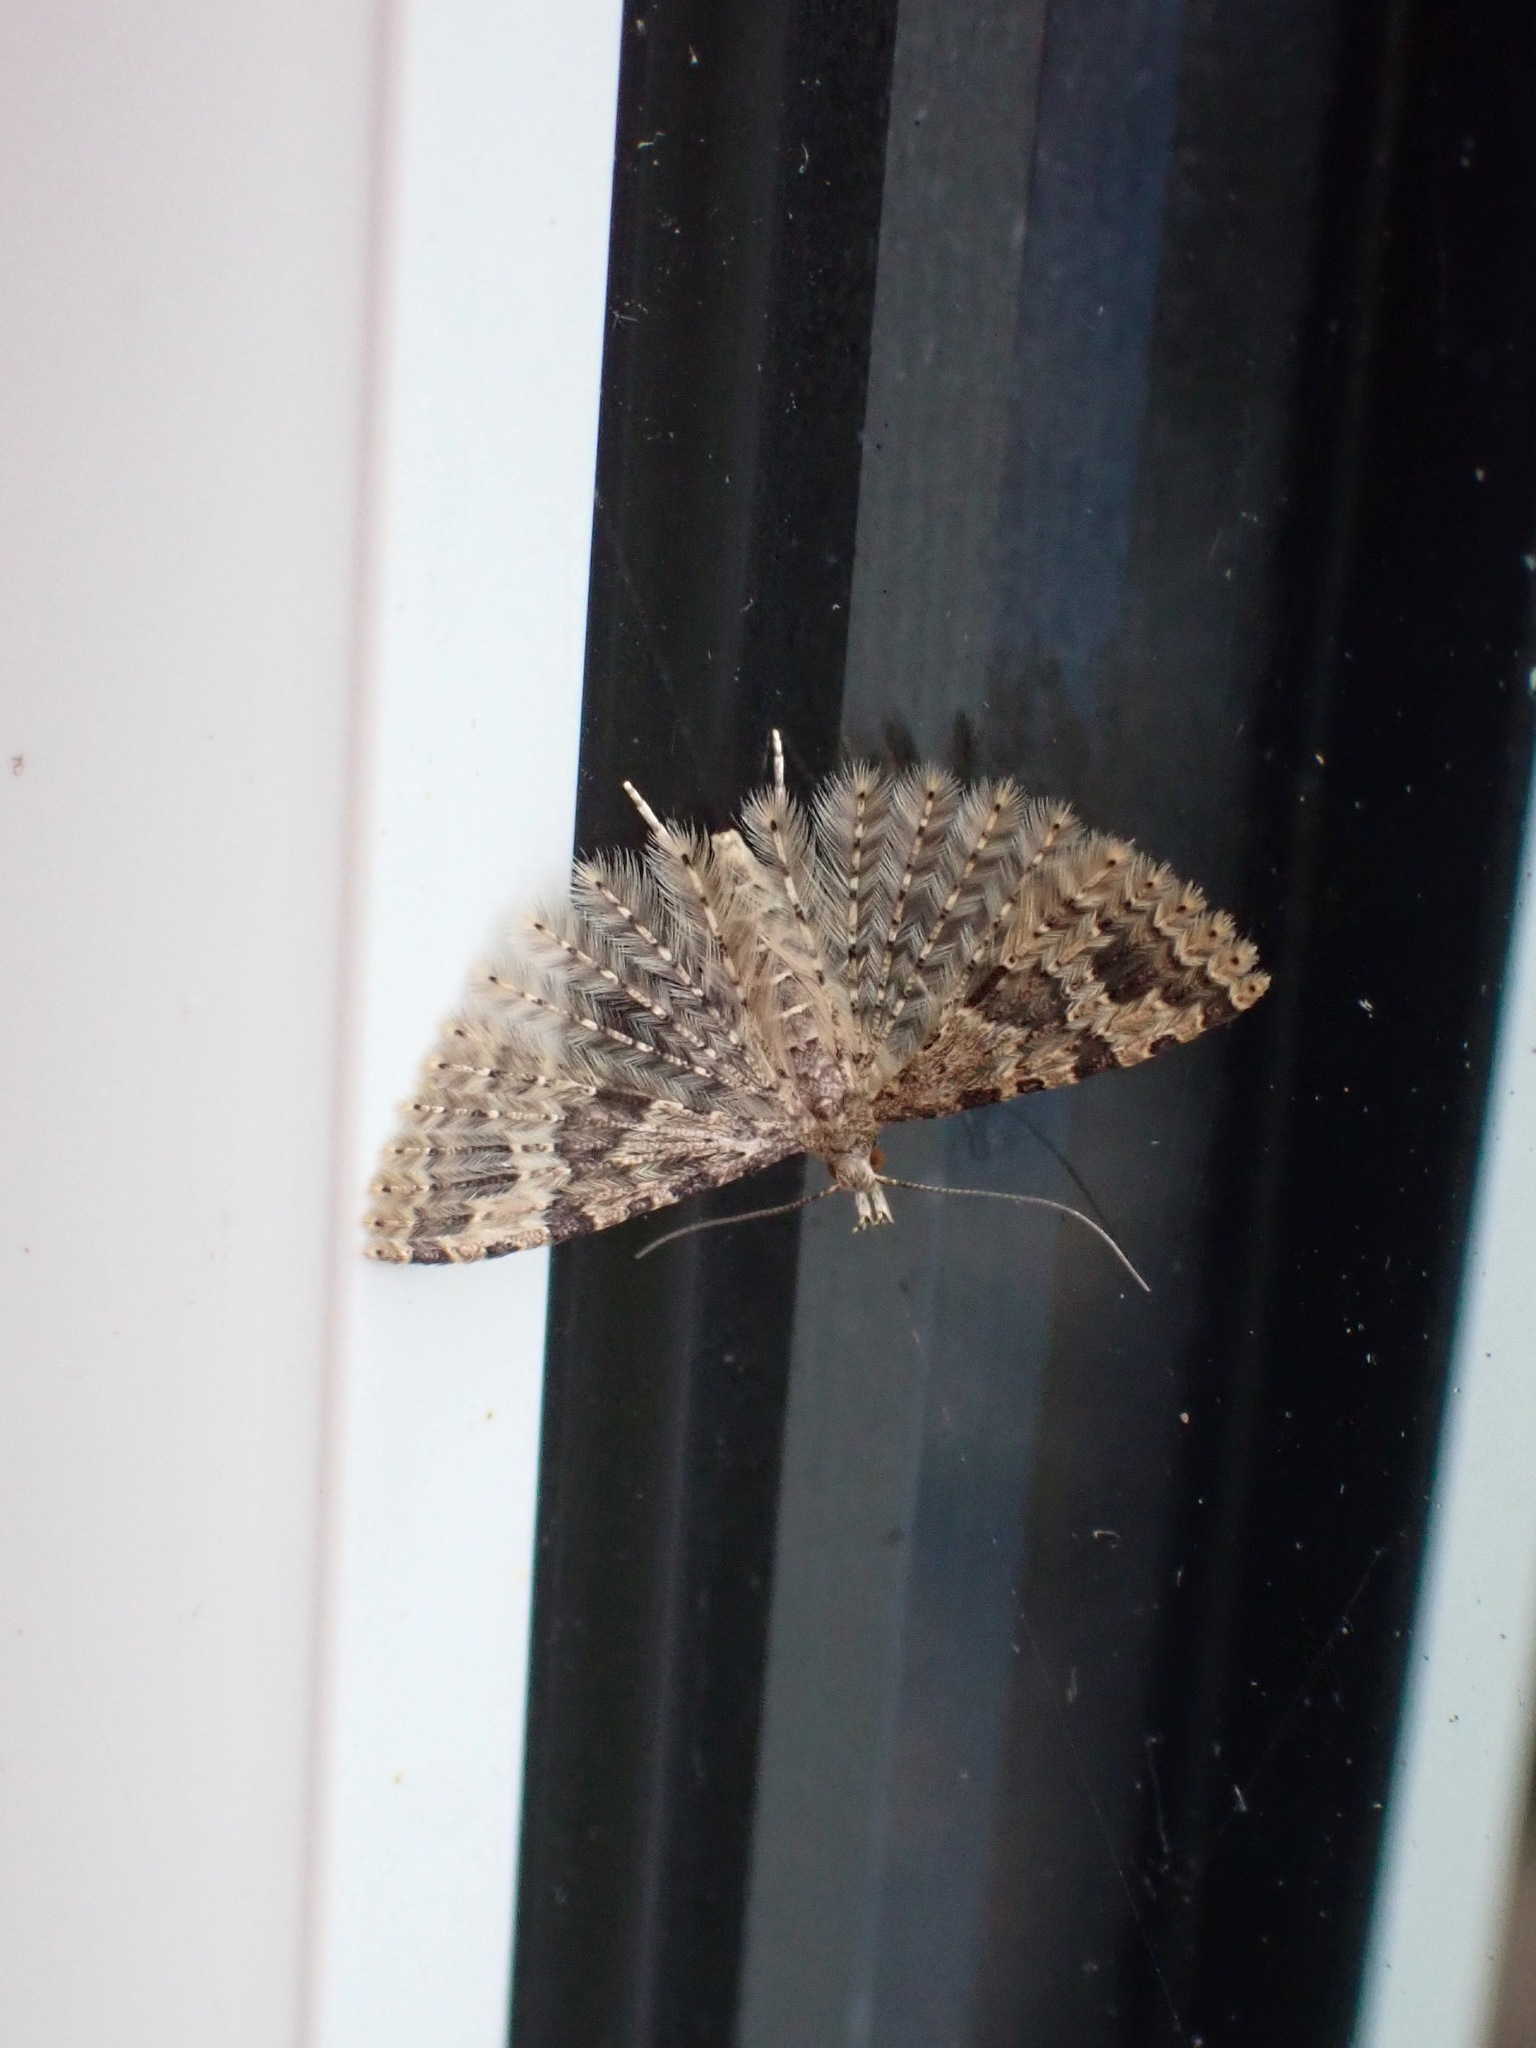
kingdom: Animalia
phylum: Arthropoda
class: Insecta
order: Lepidoptera
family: Alucitidae
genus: Alucita
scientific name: Alucita hexadactyla
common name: Twenty-plume moth
